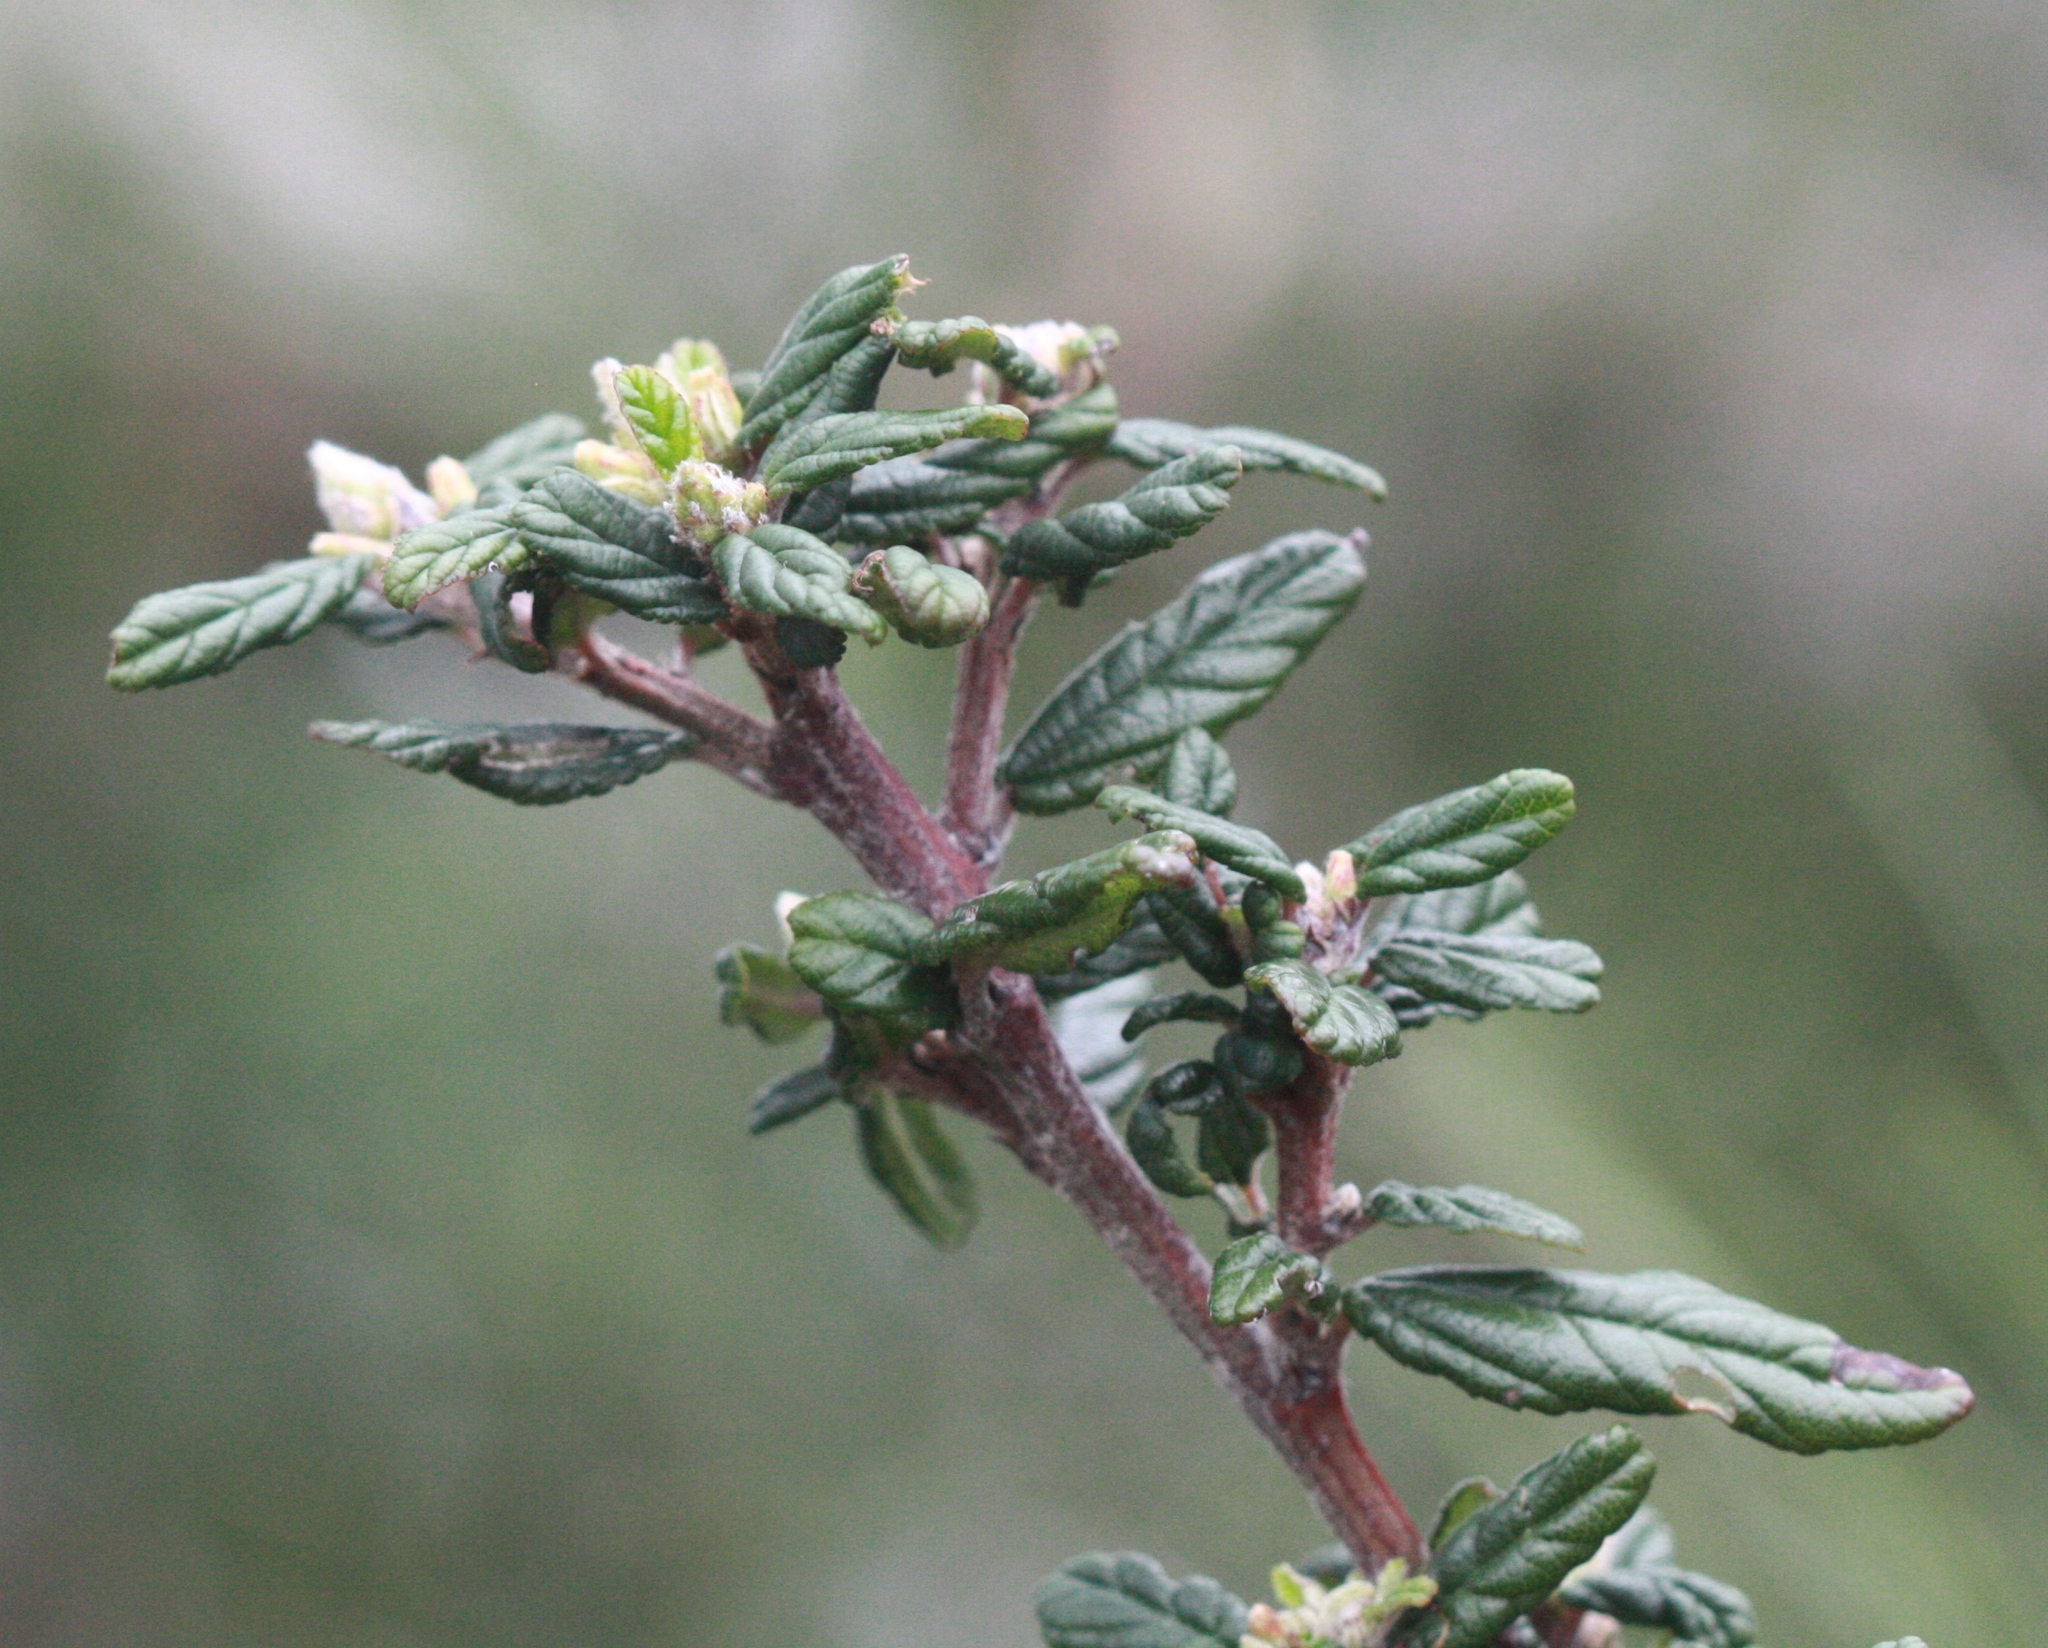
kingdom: Plantae
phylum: Tracheophyta
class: Magnoliopsida
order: Rosales
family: Rhamnaceae
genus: Ceanothus
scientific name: Ceanothus parryi
